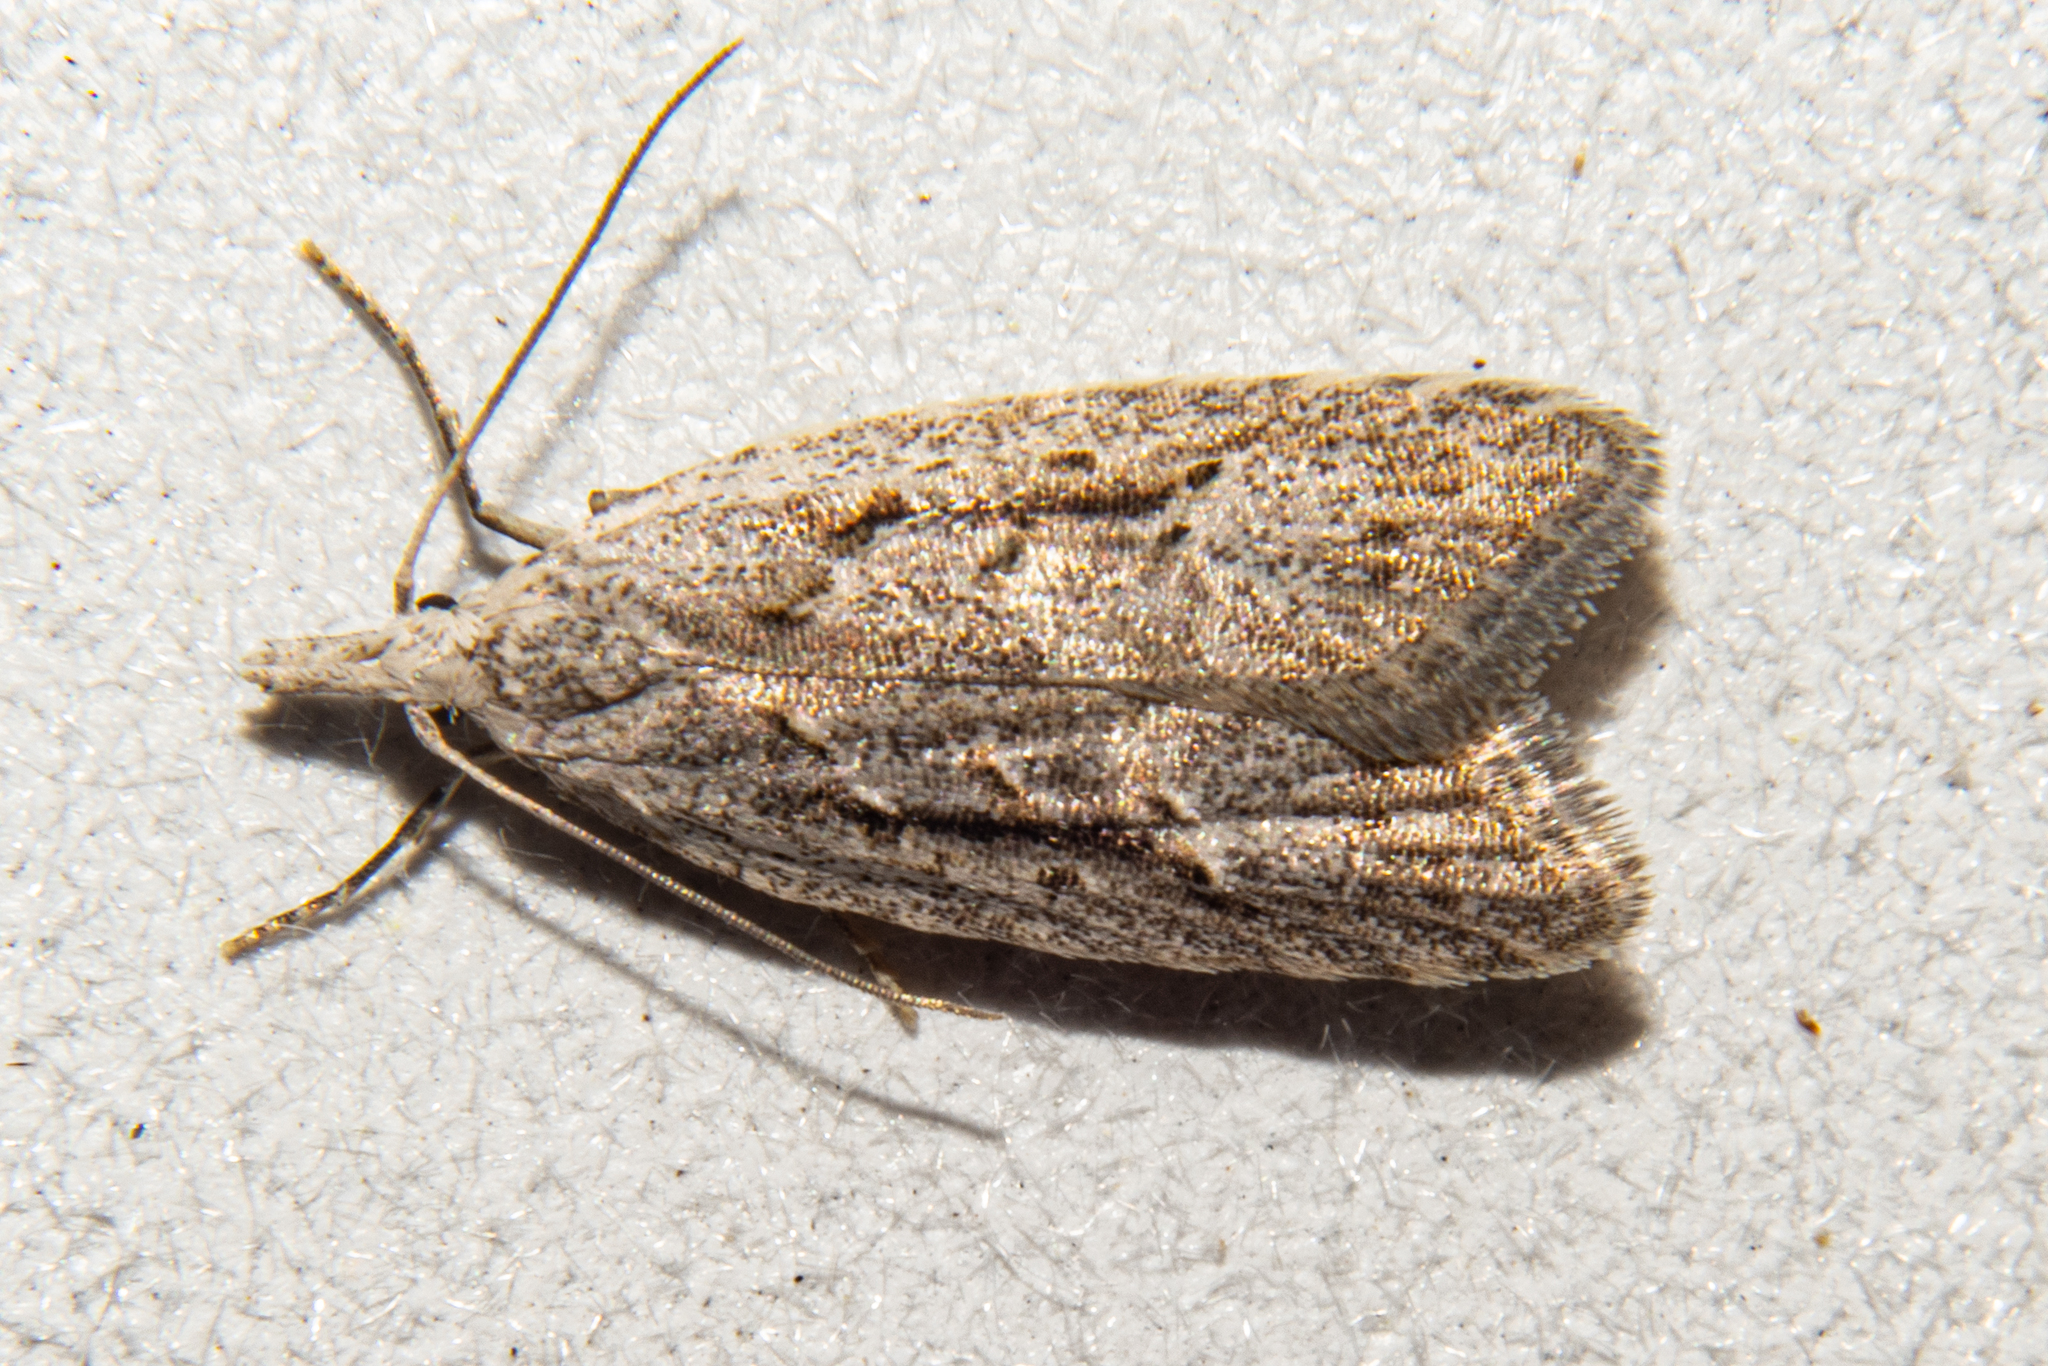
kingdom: Animalia
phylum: Arthropoda
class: Insecta
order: Lepidoptera
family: Carposinidae
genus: Carposina
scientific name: Carposina
